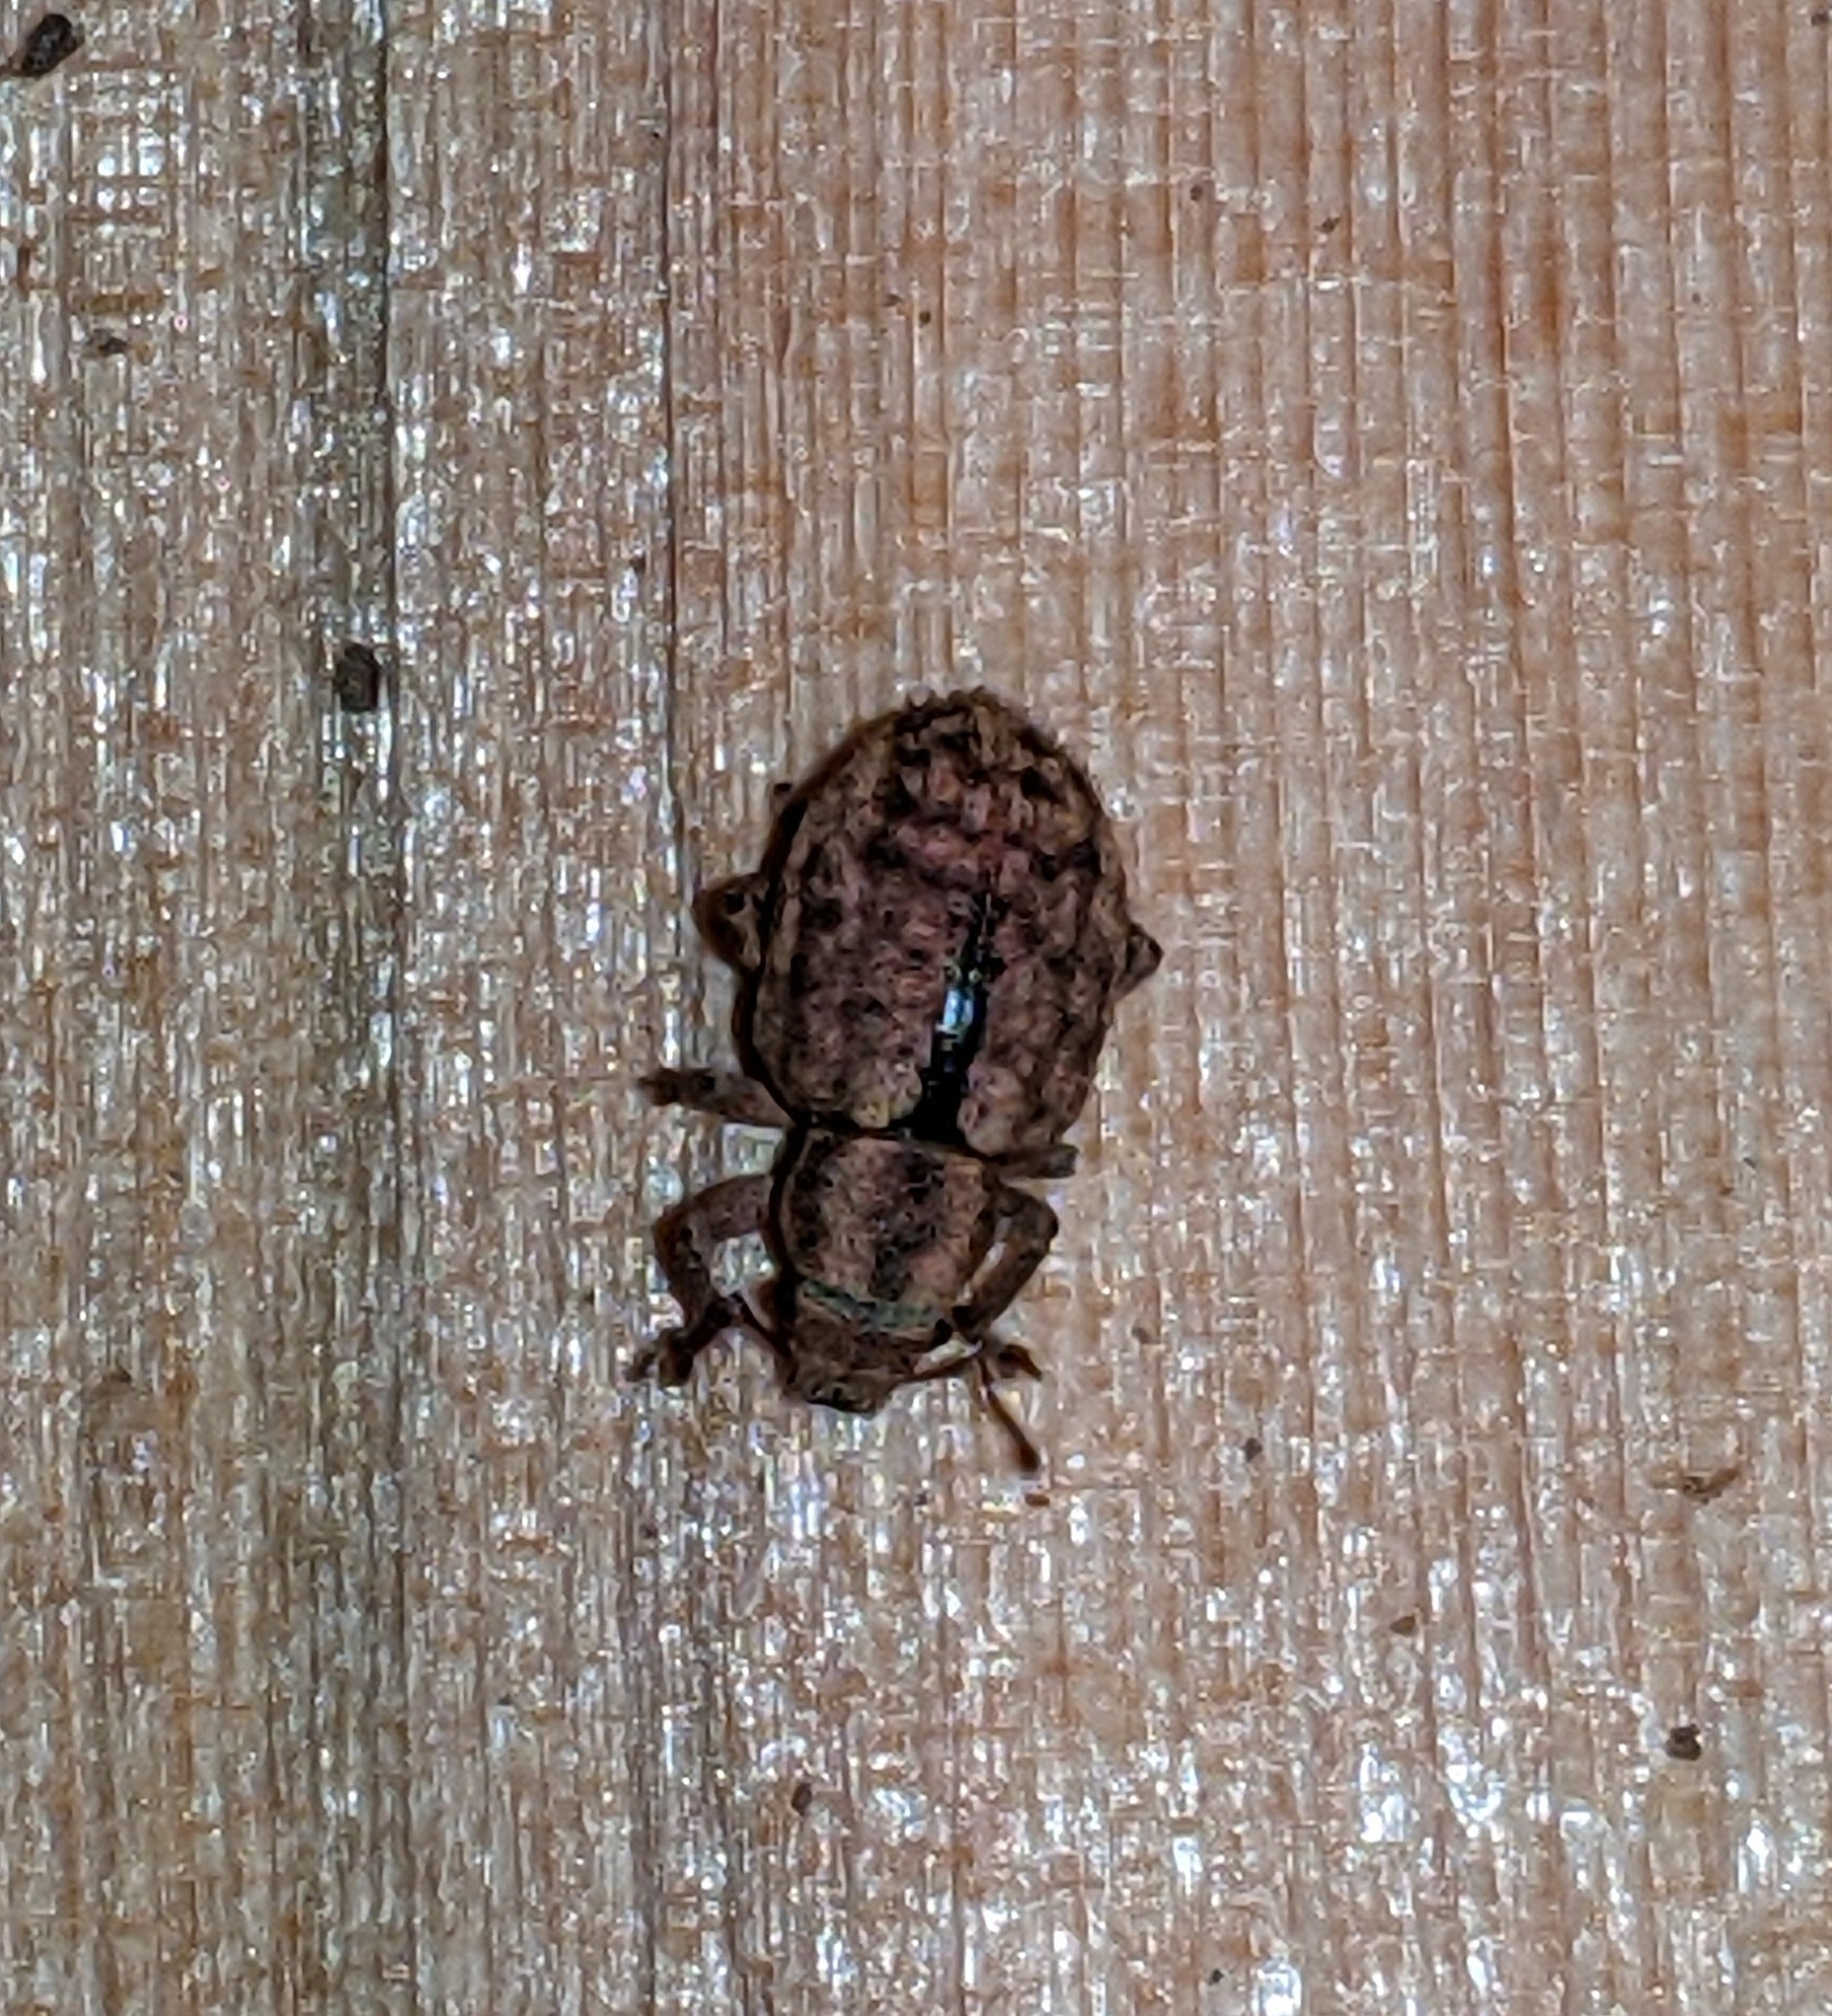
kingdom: Animalia
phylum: Arthropoda
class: Insecta
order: Coleoptera
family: Curculionidae
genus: Strophosoma
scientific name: Strophosoma melanogrammum
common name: Weevil
